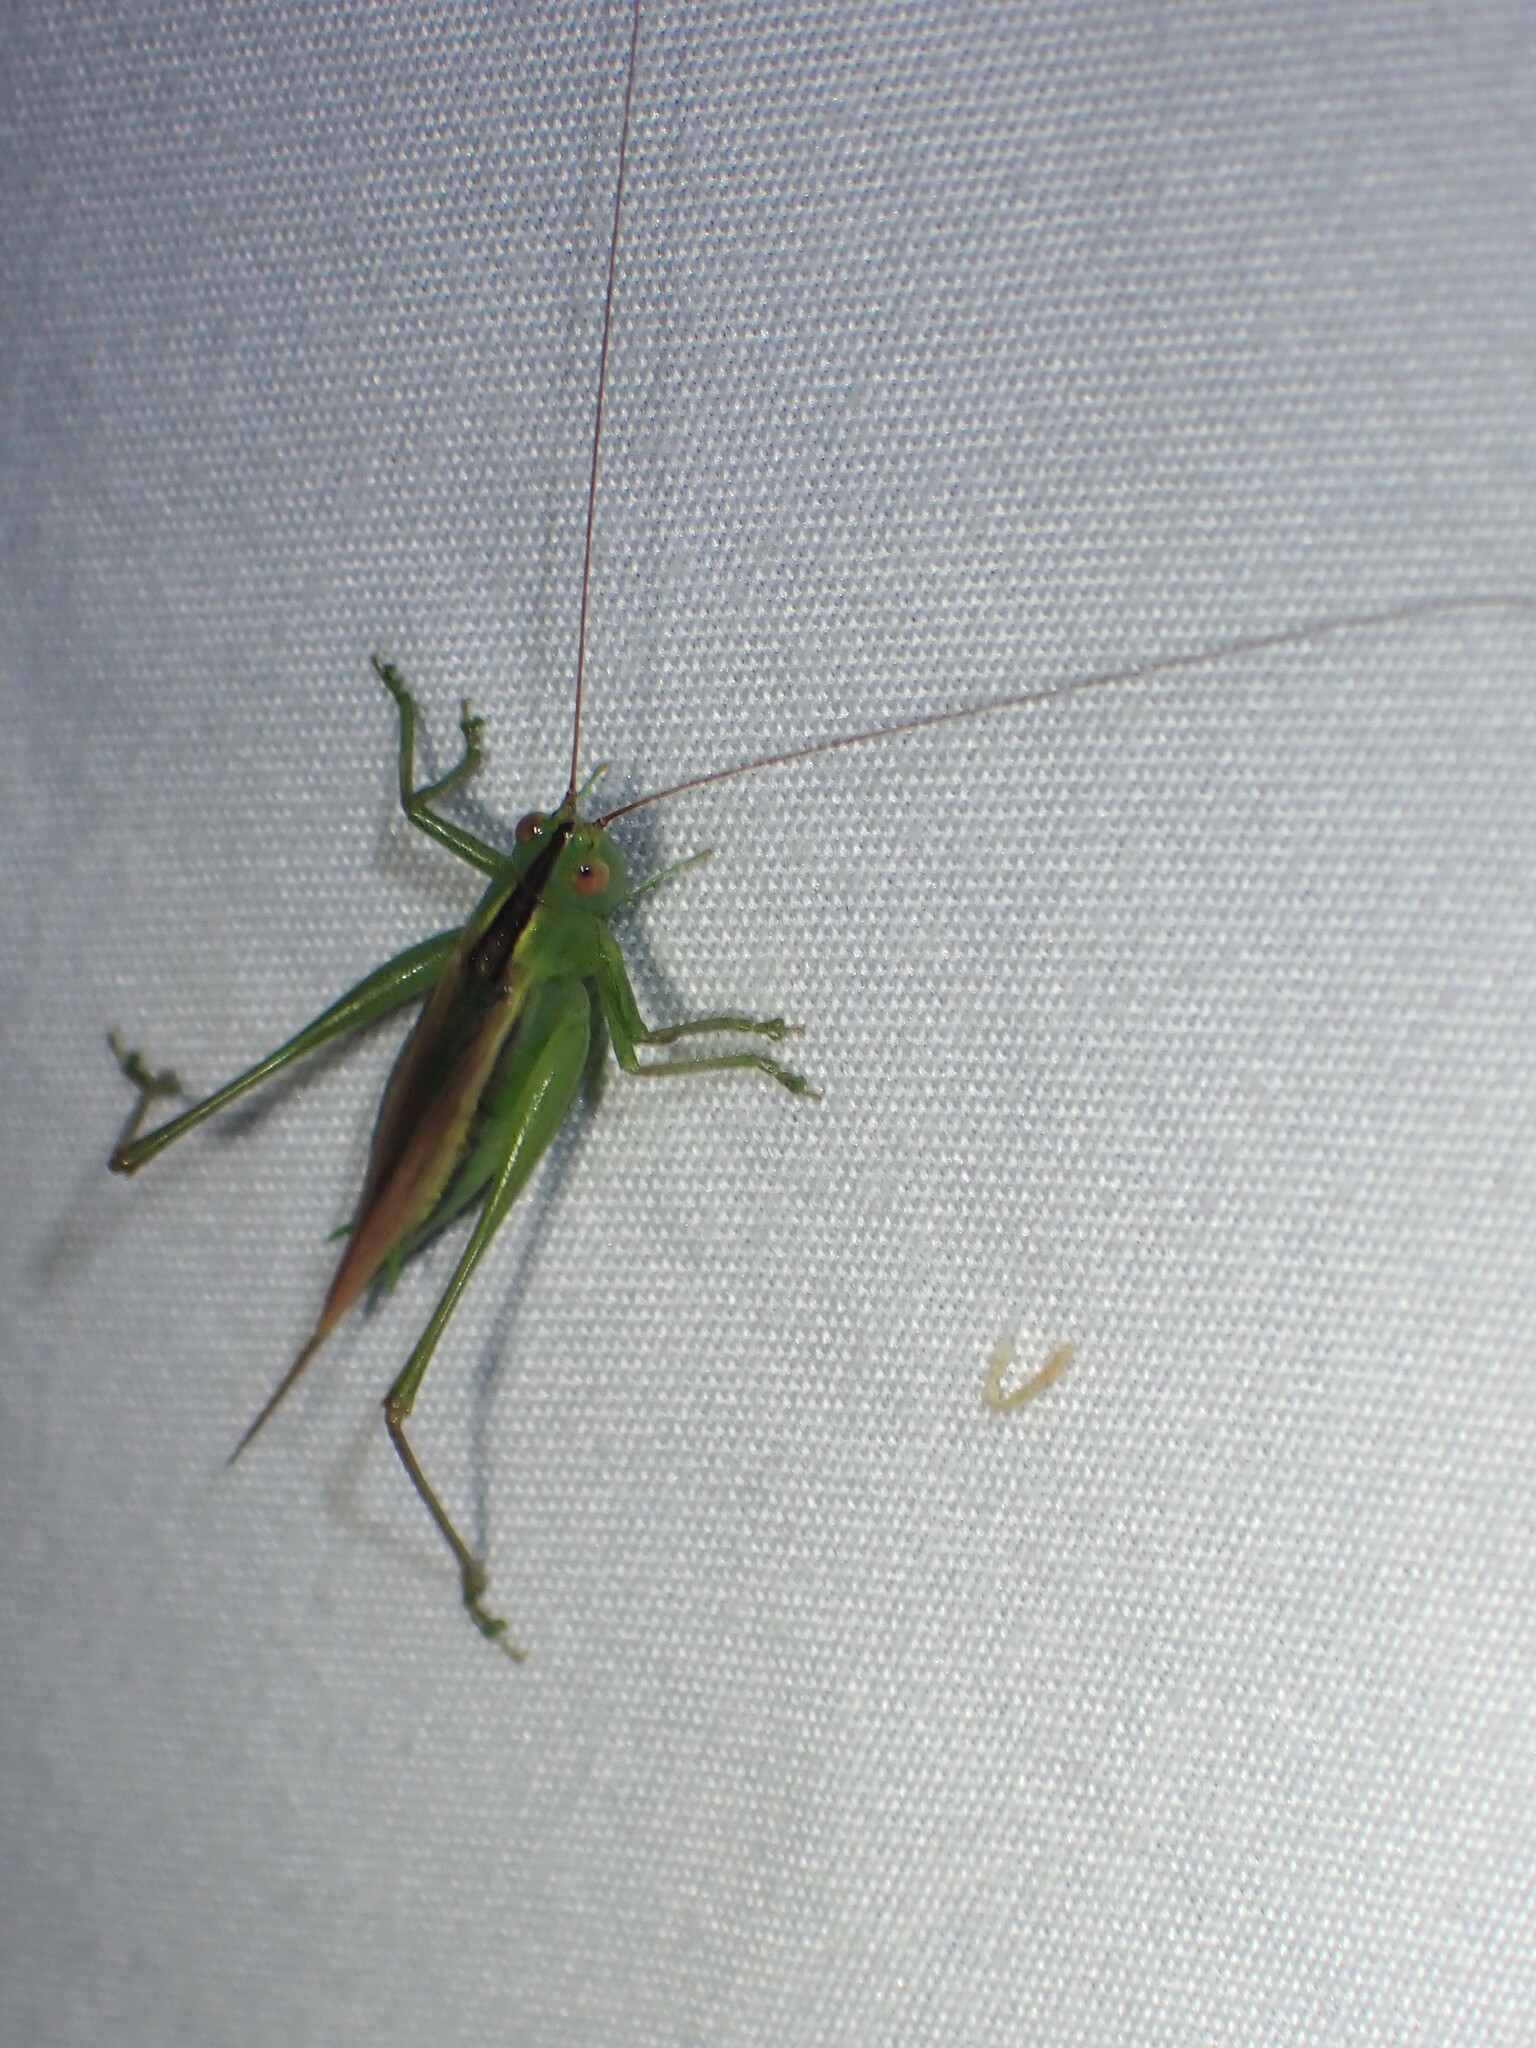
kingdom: Animalia
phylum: Arthropoda
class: Insecta
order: Orthoptera
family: Tettigoniidae
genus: Conocephalus
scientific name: Conocephalus fasciatus
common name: Slender meadow katydid
